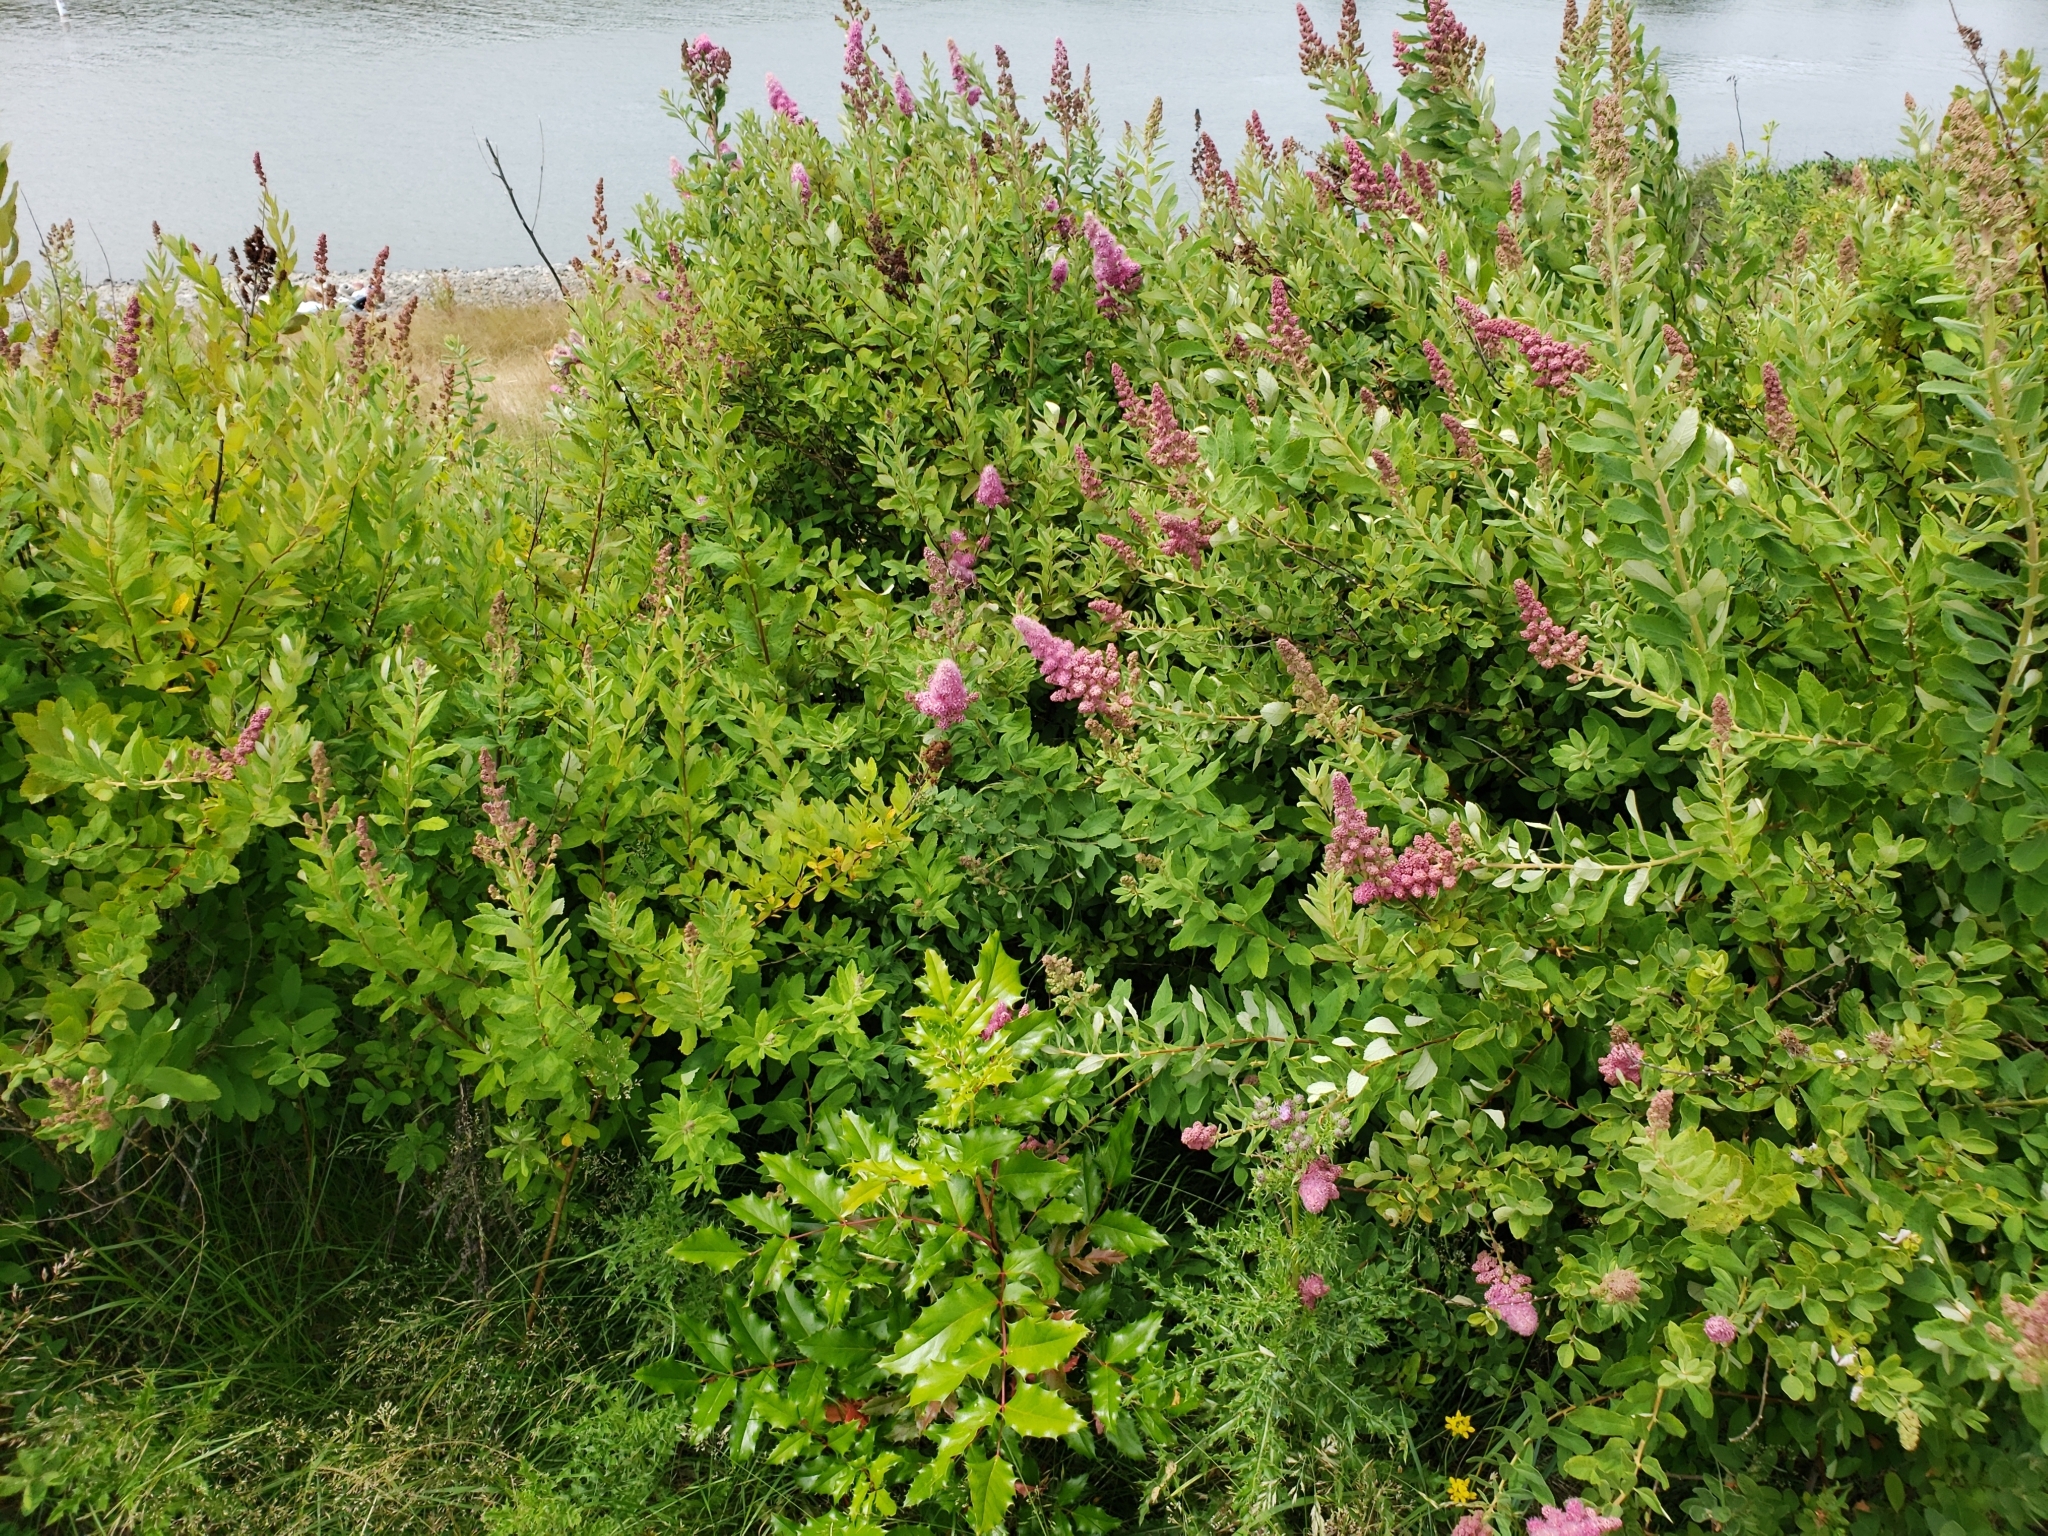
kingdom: Plantae
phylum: Tracheophyta
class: Magnoliopsida
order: Rosales
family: Rosaceae
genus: Spiraea
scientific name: Spiraea douglasii
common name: Steeplebush
